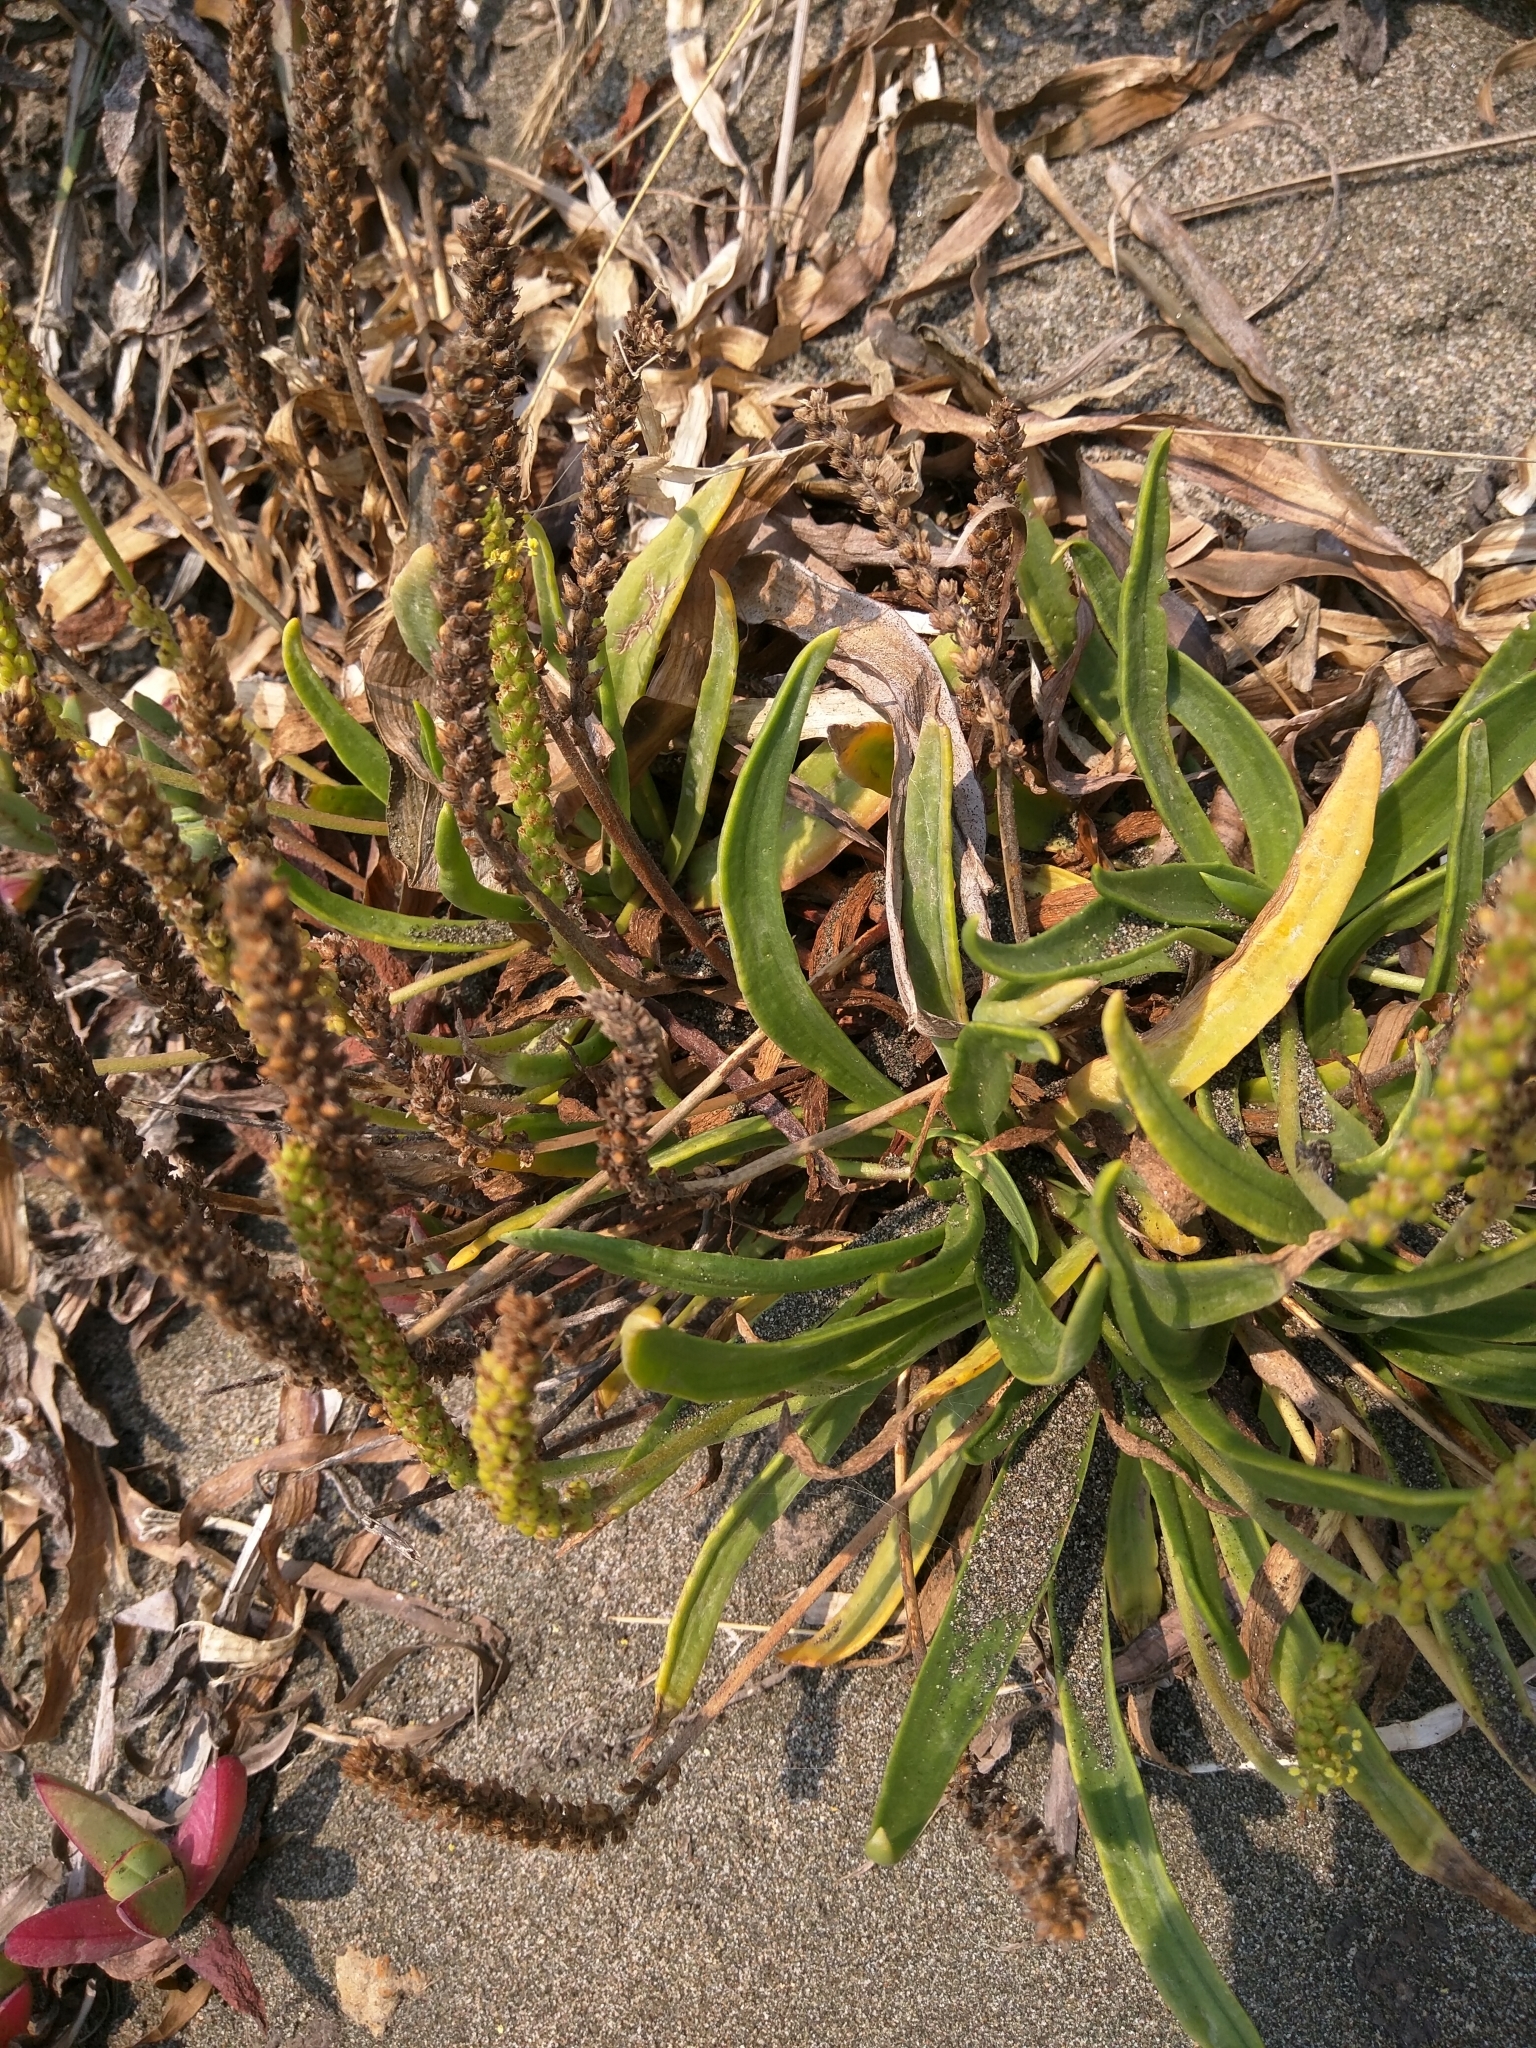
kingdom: Plantae
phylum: Tracheophyta
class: Magnoliopsida
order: Lamiales
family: Plantaginaceae
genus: Plantago
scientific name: Plantago maritima
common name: Sea plantain
